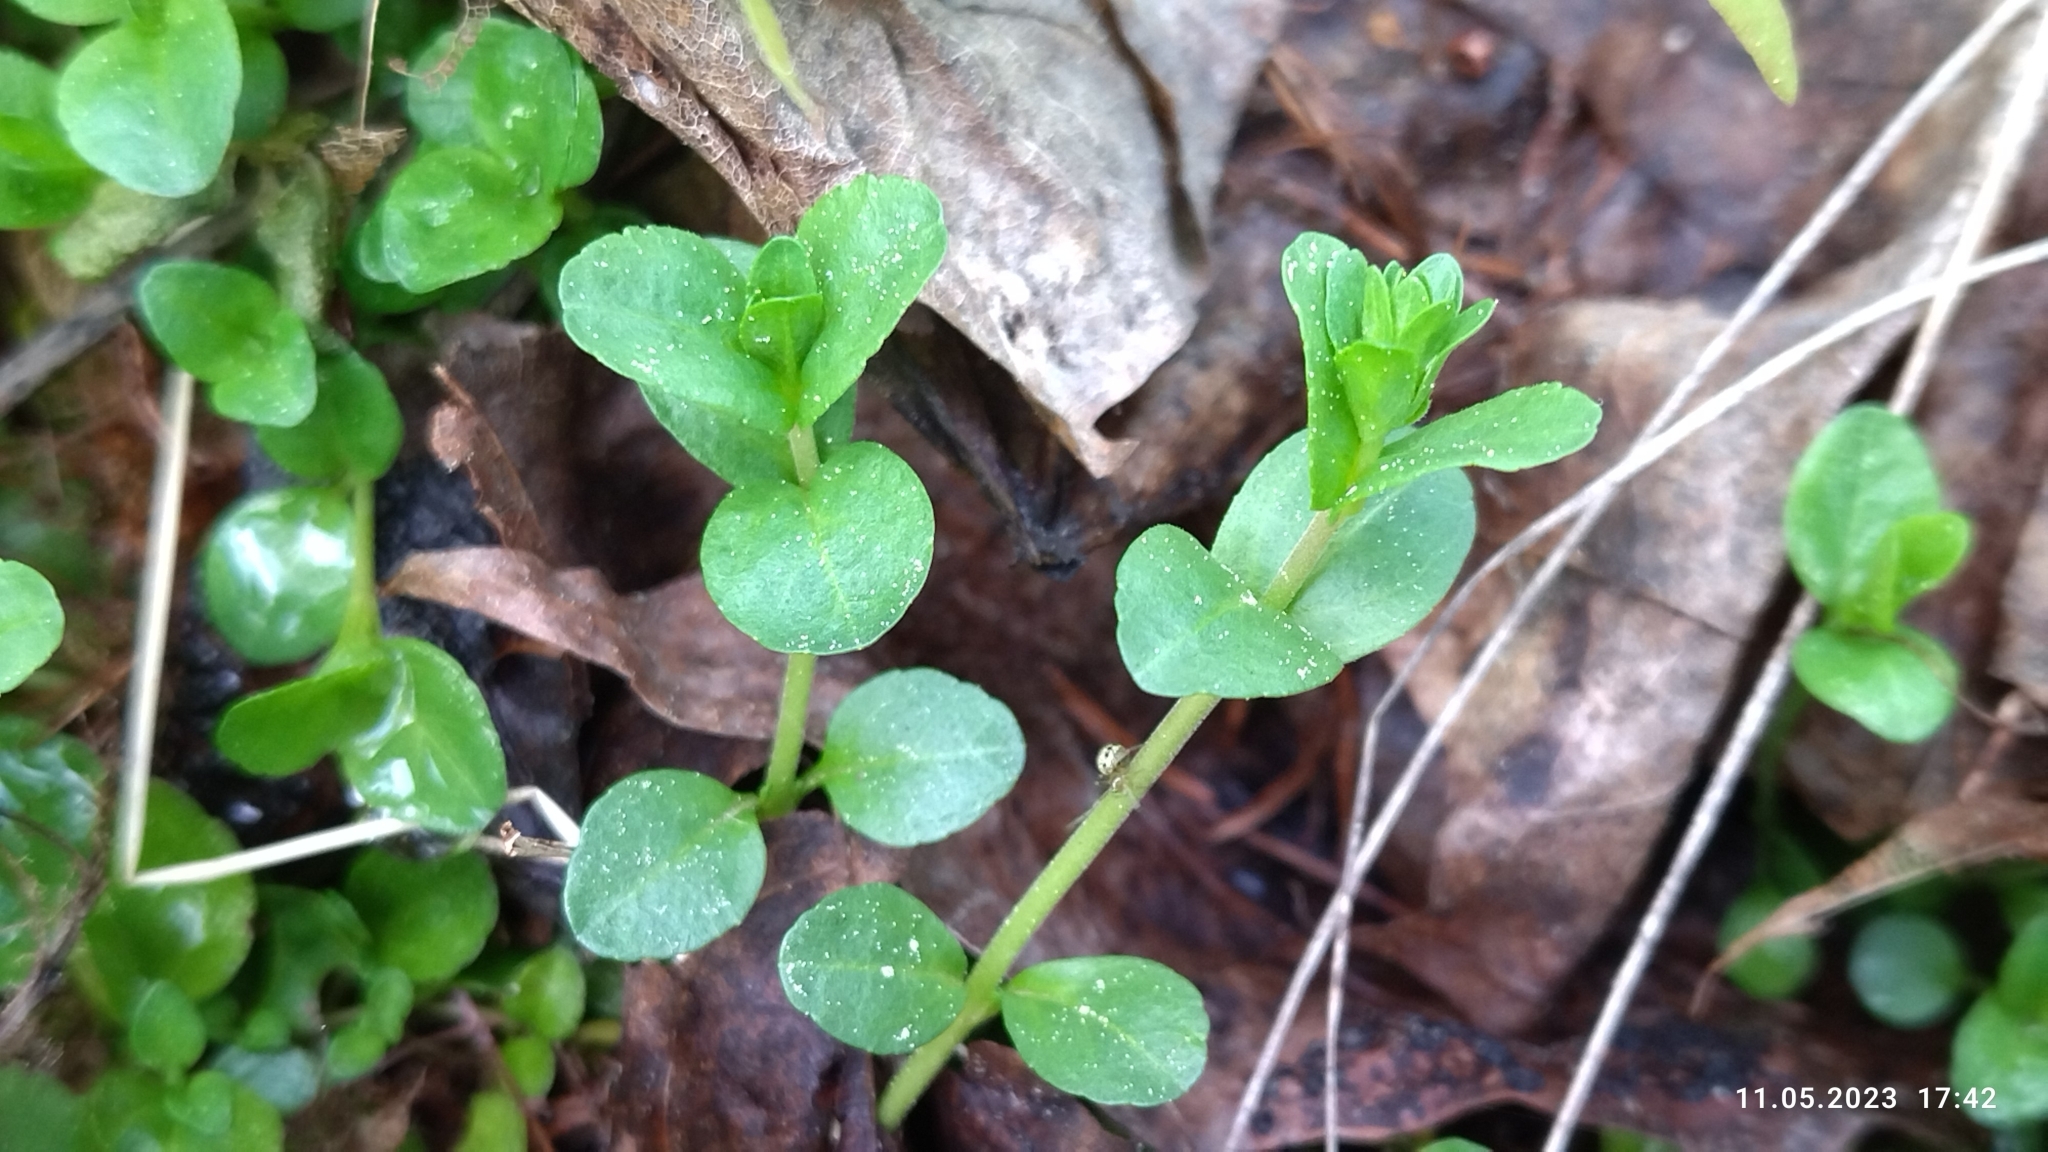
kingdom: Plantae
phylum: Tracheophyta
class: Magnoliopsida
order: Lamiales
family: Plantaginaceae
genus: Veronica
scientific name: Veronica serpyllifolia
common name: Thyme-leaved speedwell
